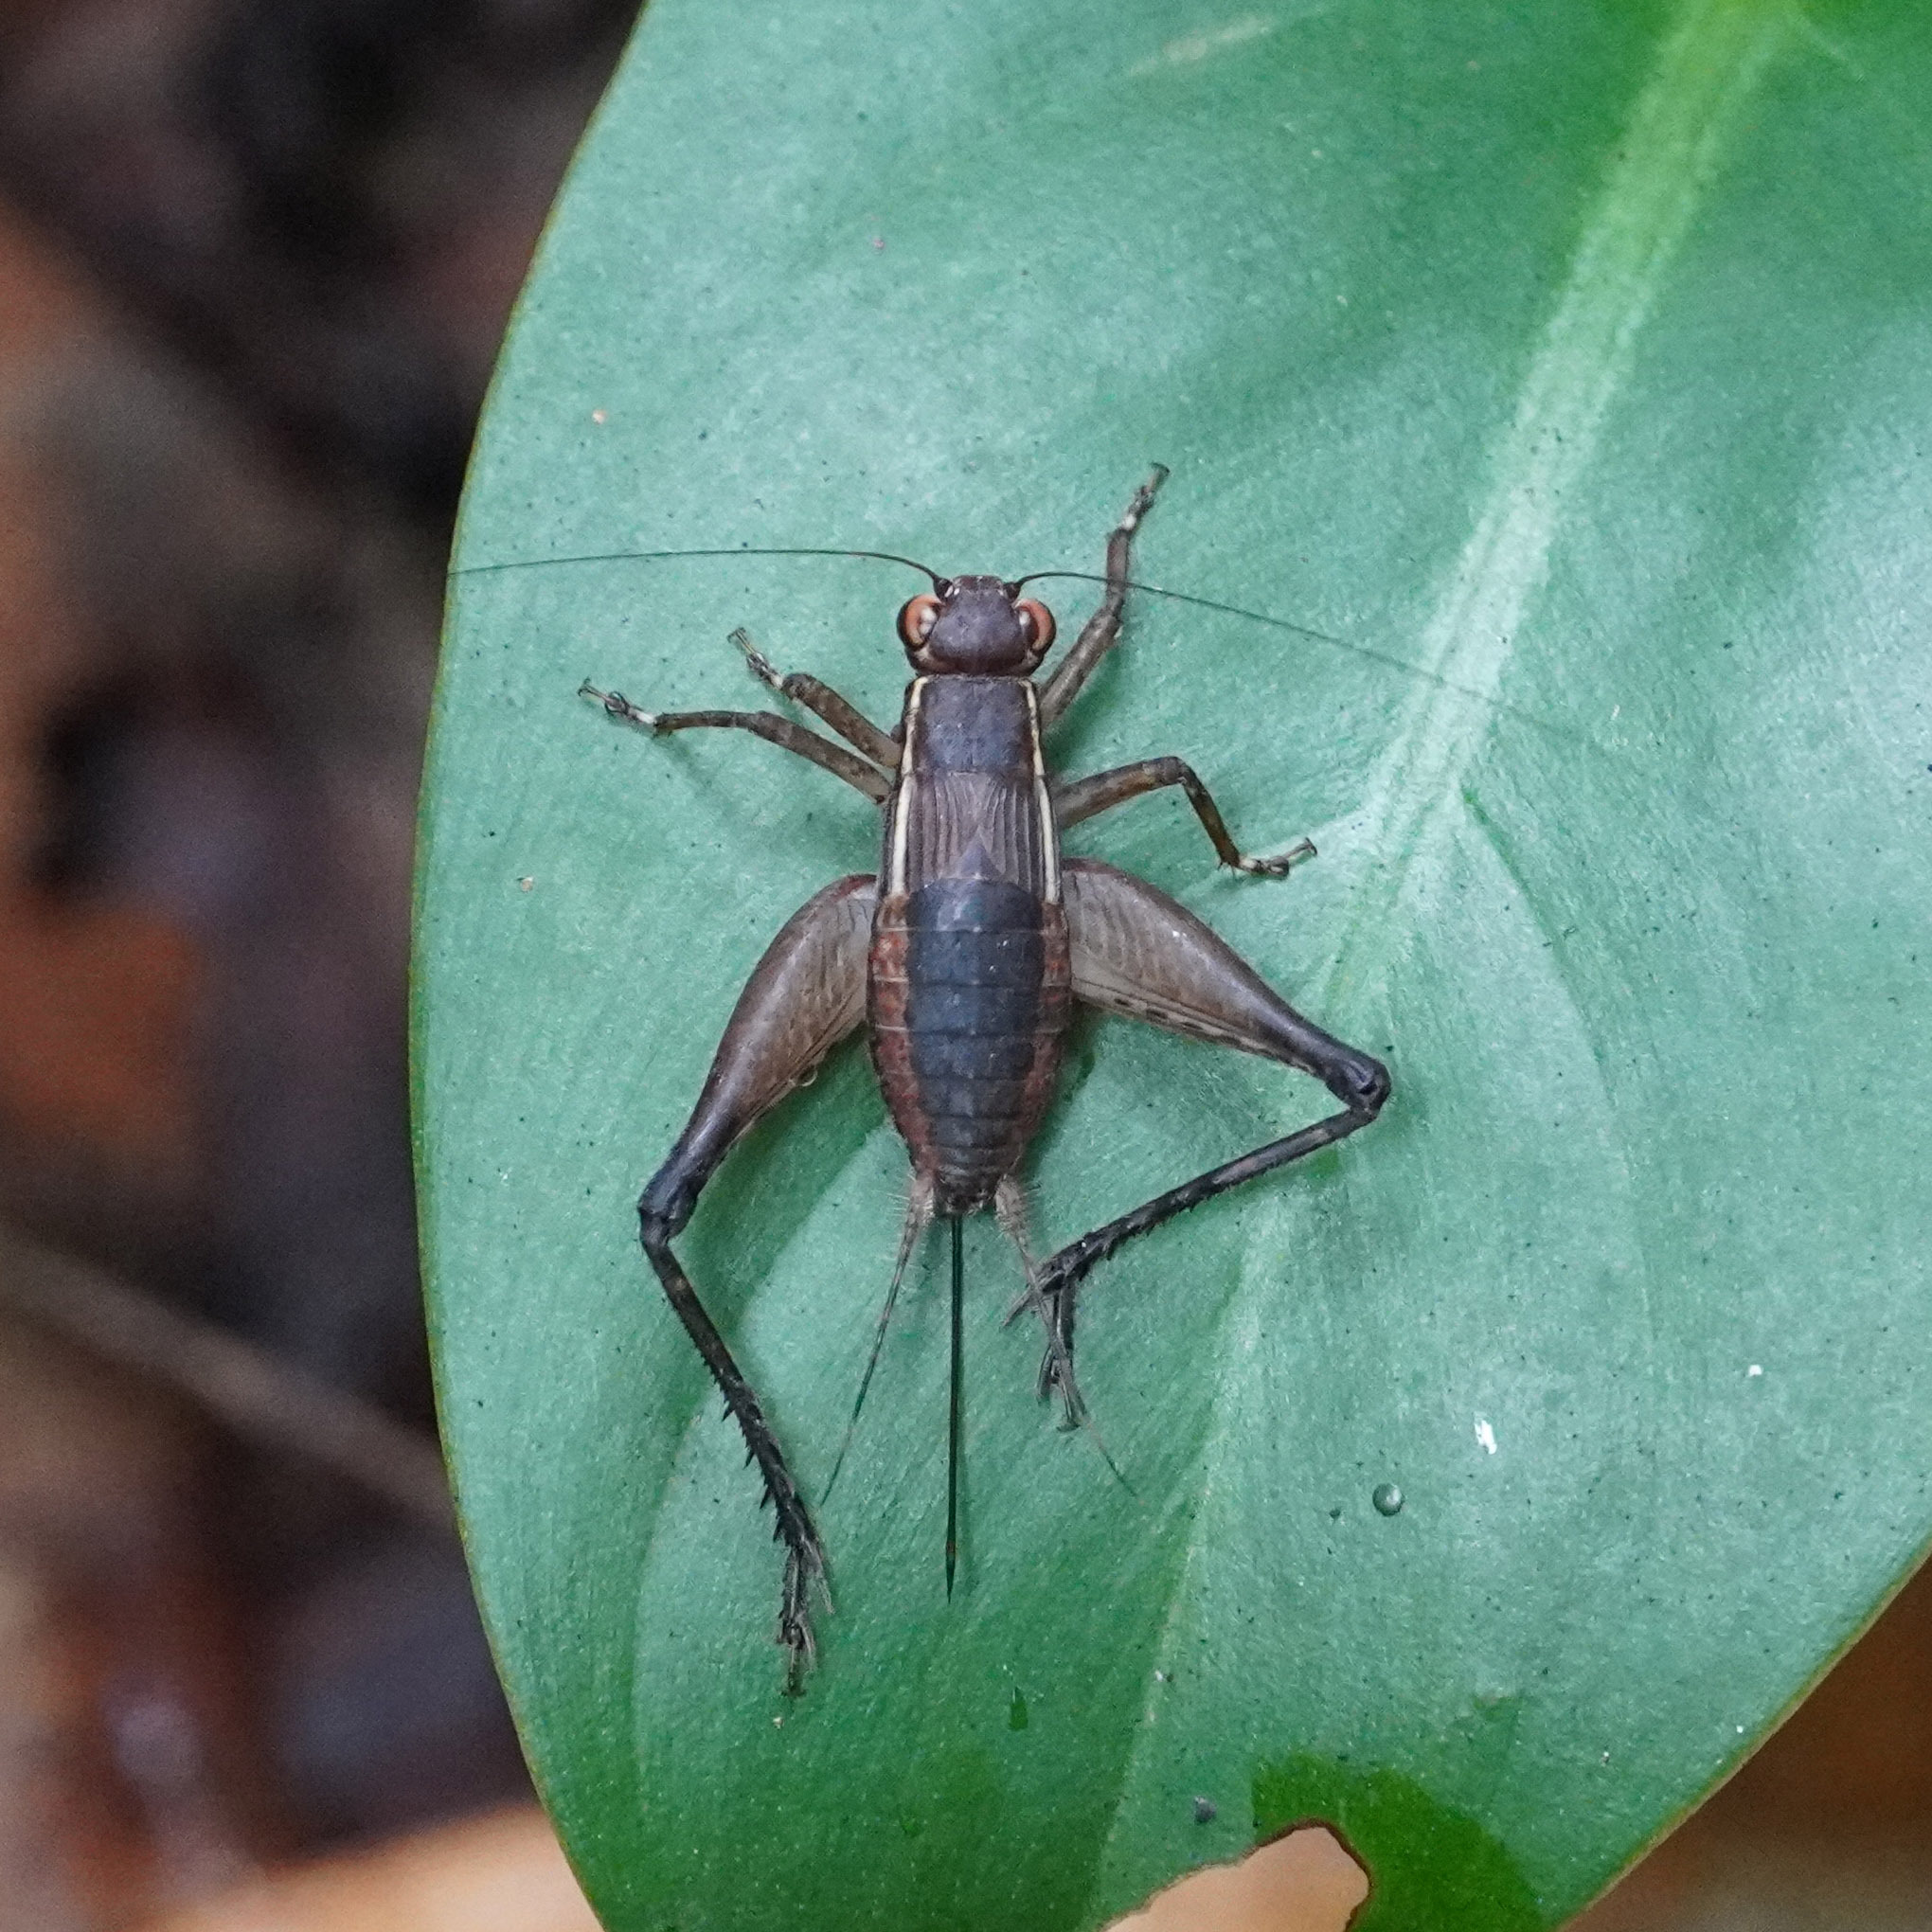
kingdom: Animalia
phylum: Arthropoda
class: Insecta
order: Orthoptera
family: Gryllidae
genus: Lebinthus
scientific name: Lebinthus luae
